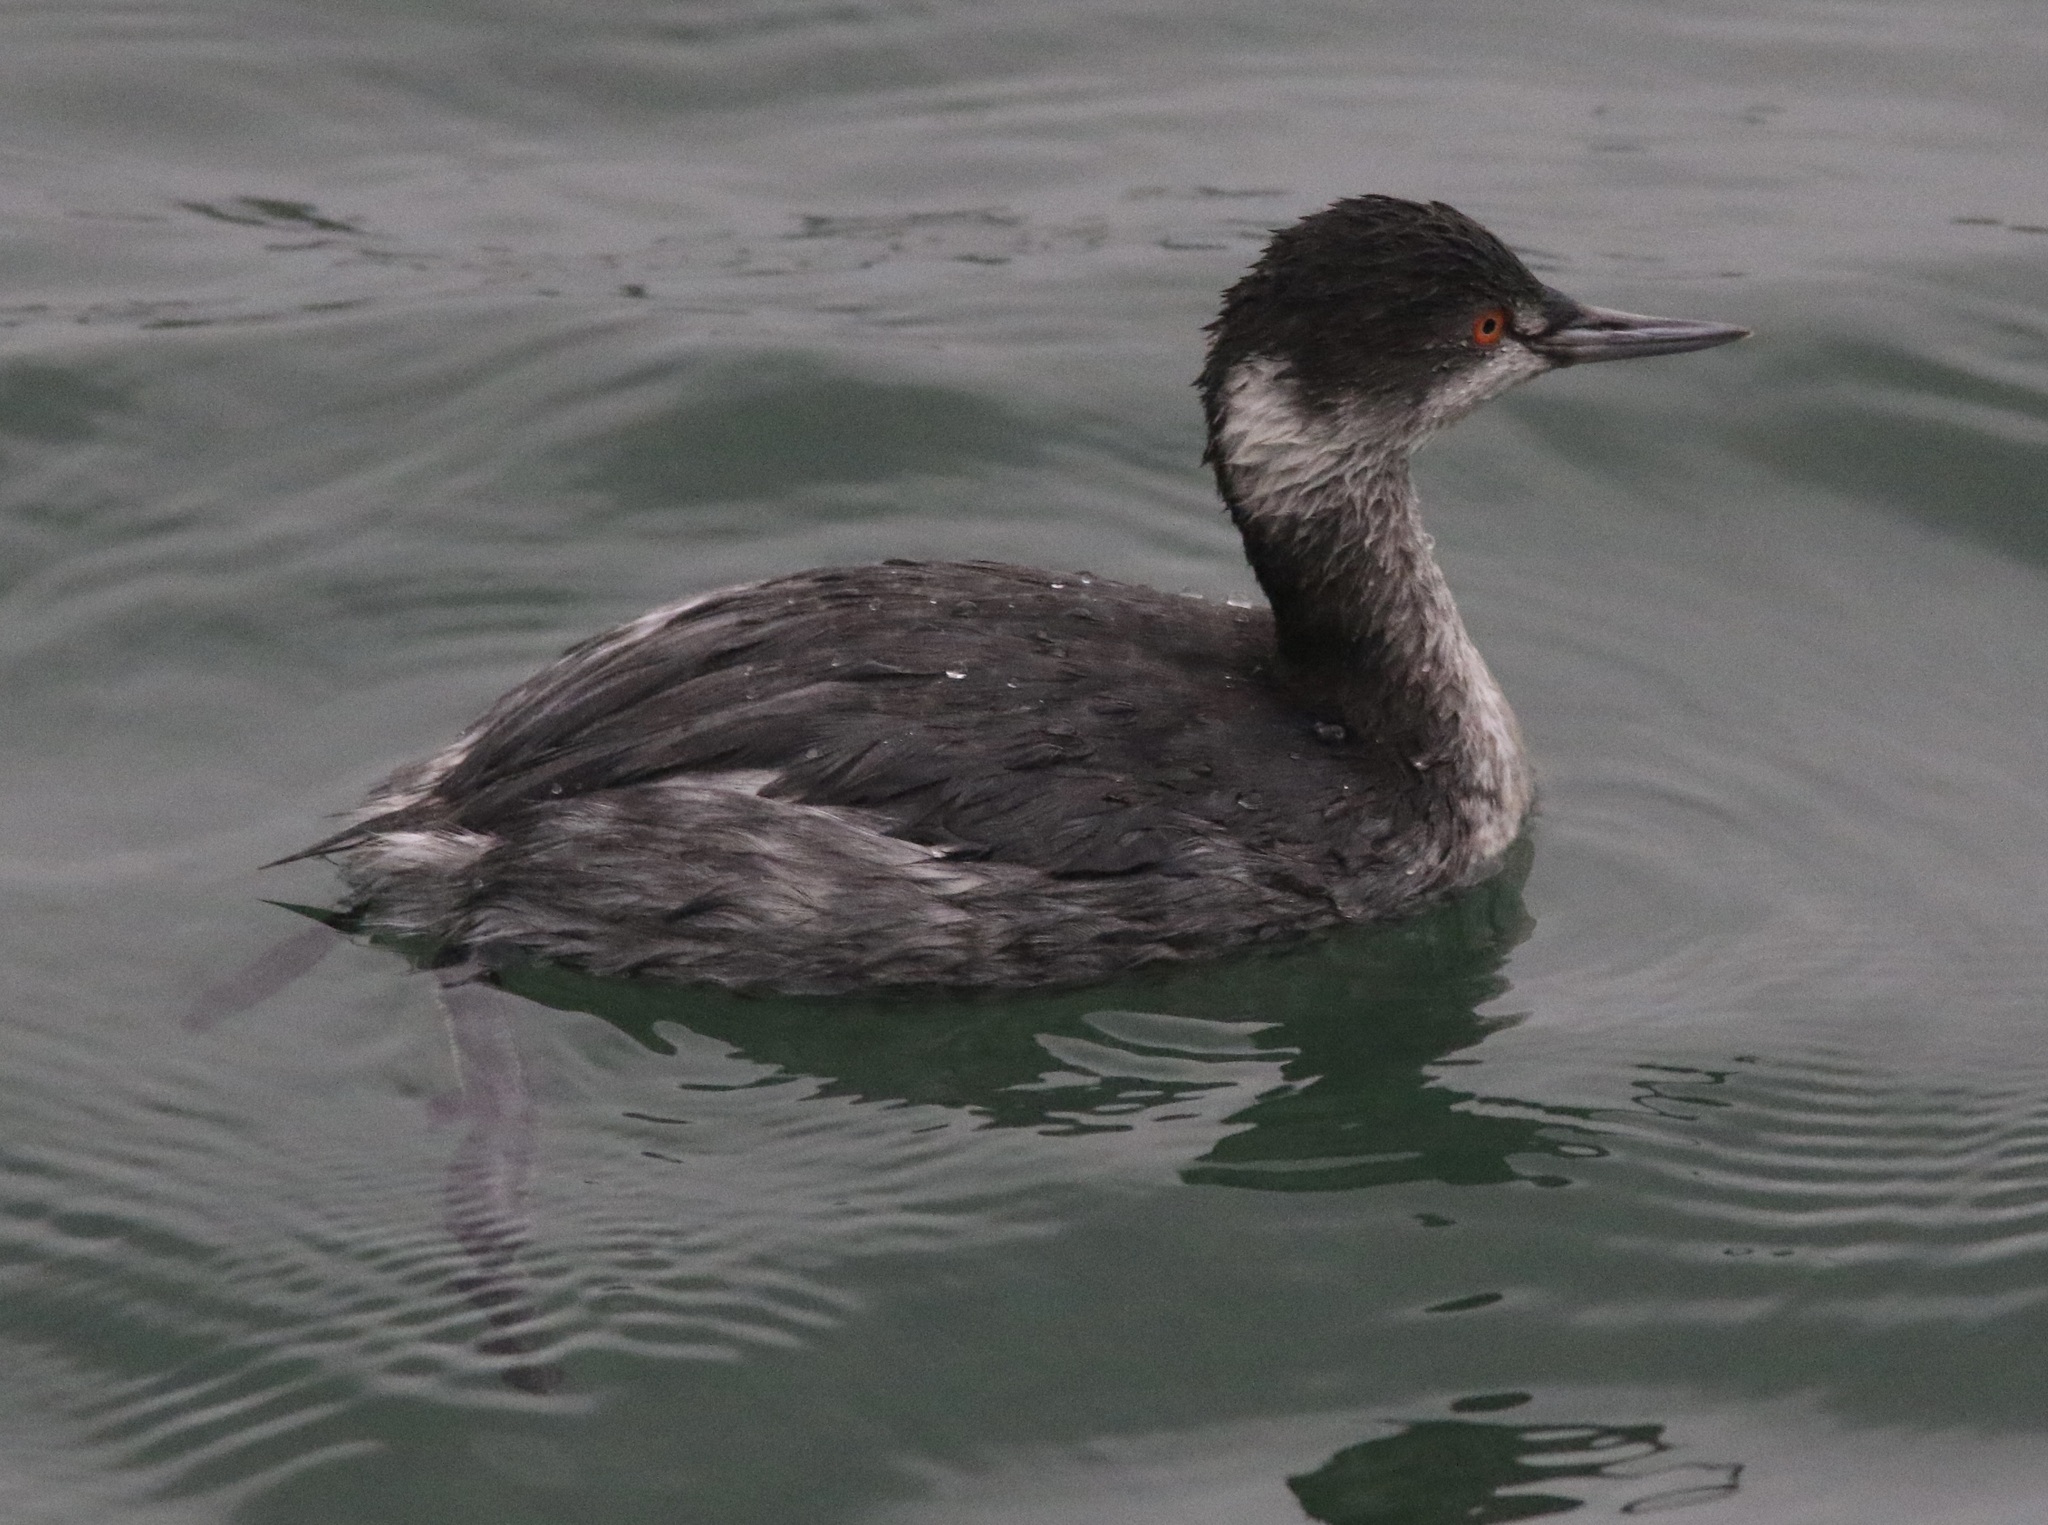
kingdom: Animalia
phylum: Chordata
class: Aves
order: Podicipediformes
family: Podicipedidae
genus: Podiceps
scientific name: Podiceps nigricollis
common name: Black-necked grebe
